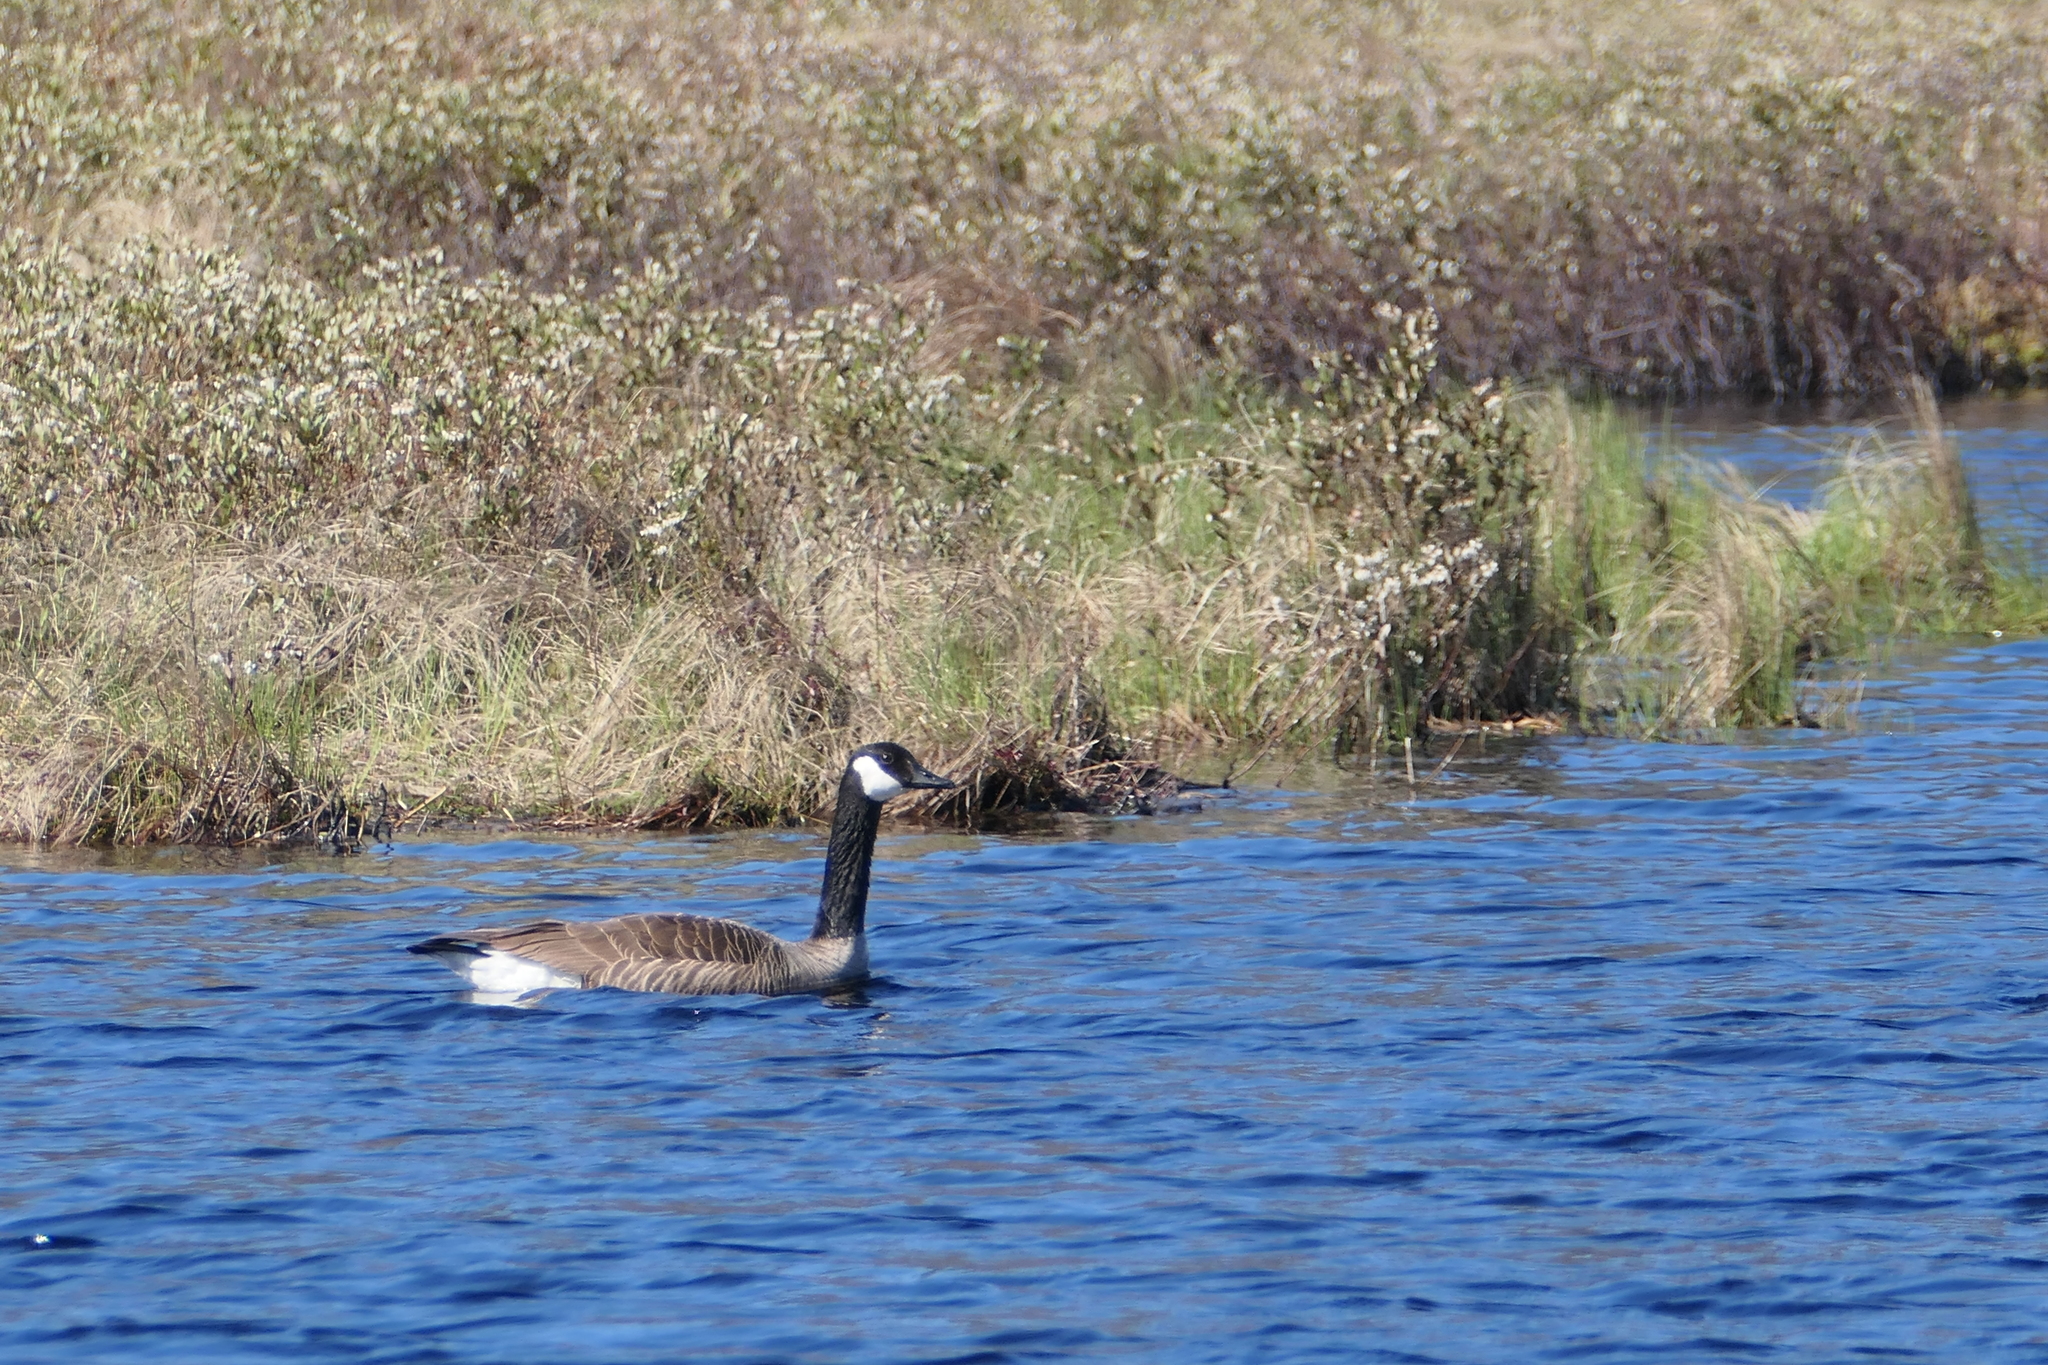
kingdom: Animalia
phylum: Chordata
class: Aves
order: Anseriformes
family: Anatidae
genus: Branta
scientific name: Branta canadensis
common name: Canada goose
